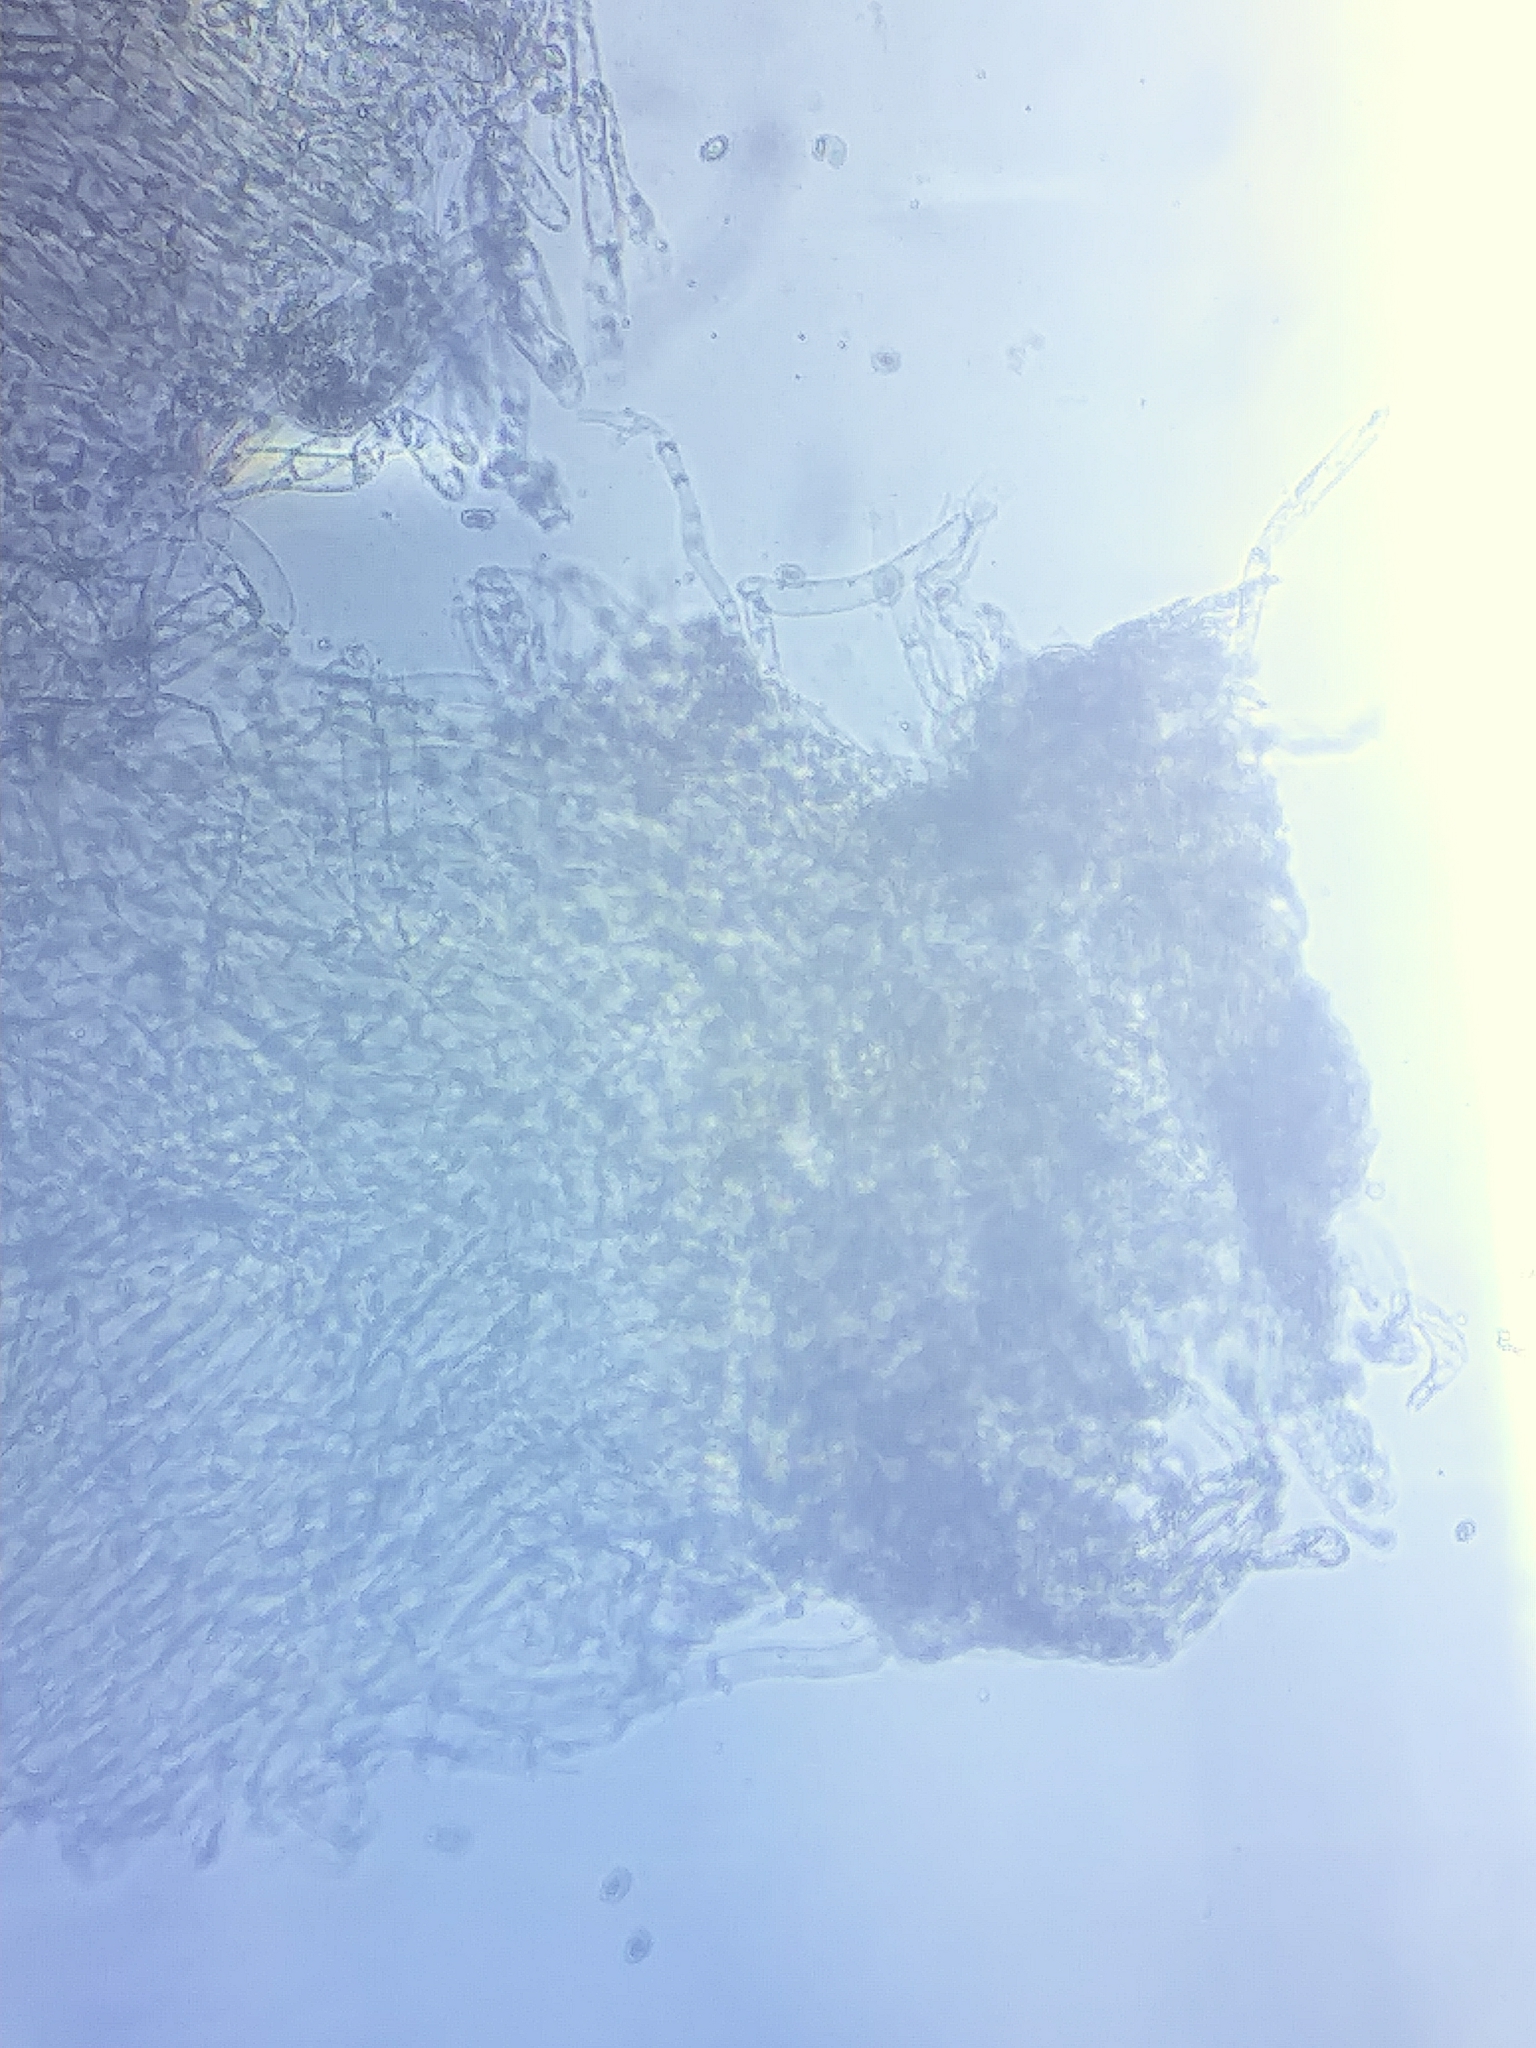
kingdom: Fungi
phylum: Basidiomycota
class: Agaricomycetes
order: Agaricales
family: Hygrophoraceae
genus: Hygrocybe
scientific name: Hygrocybe coccineocrenata
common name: Bog waxcap
